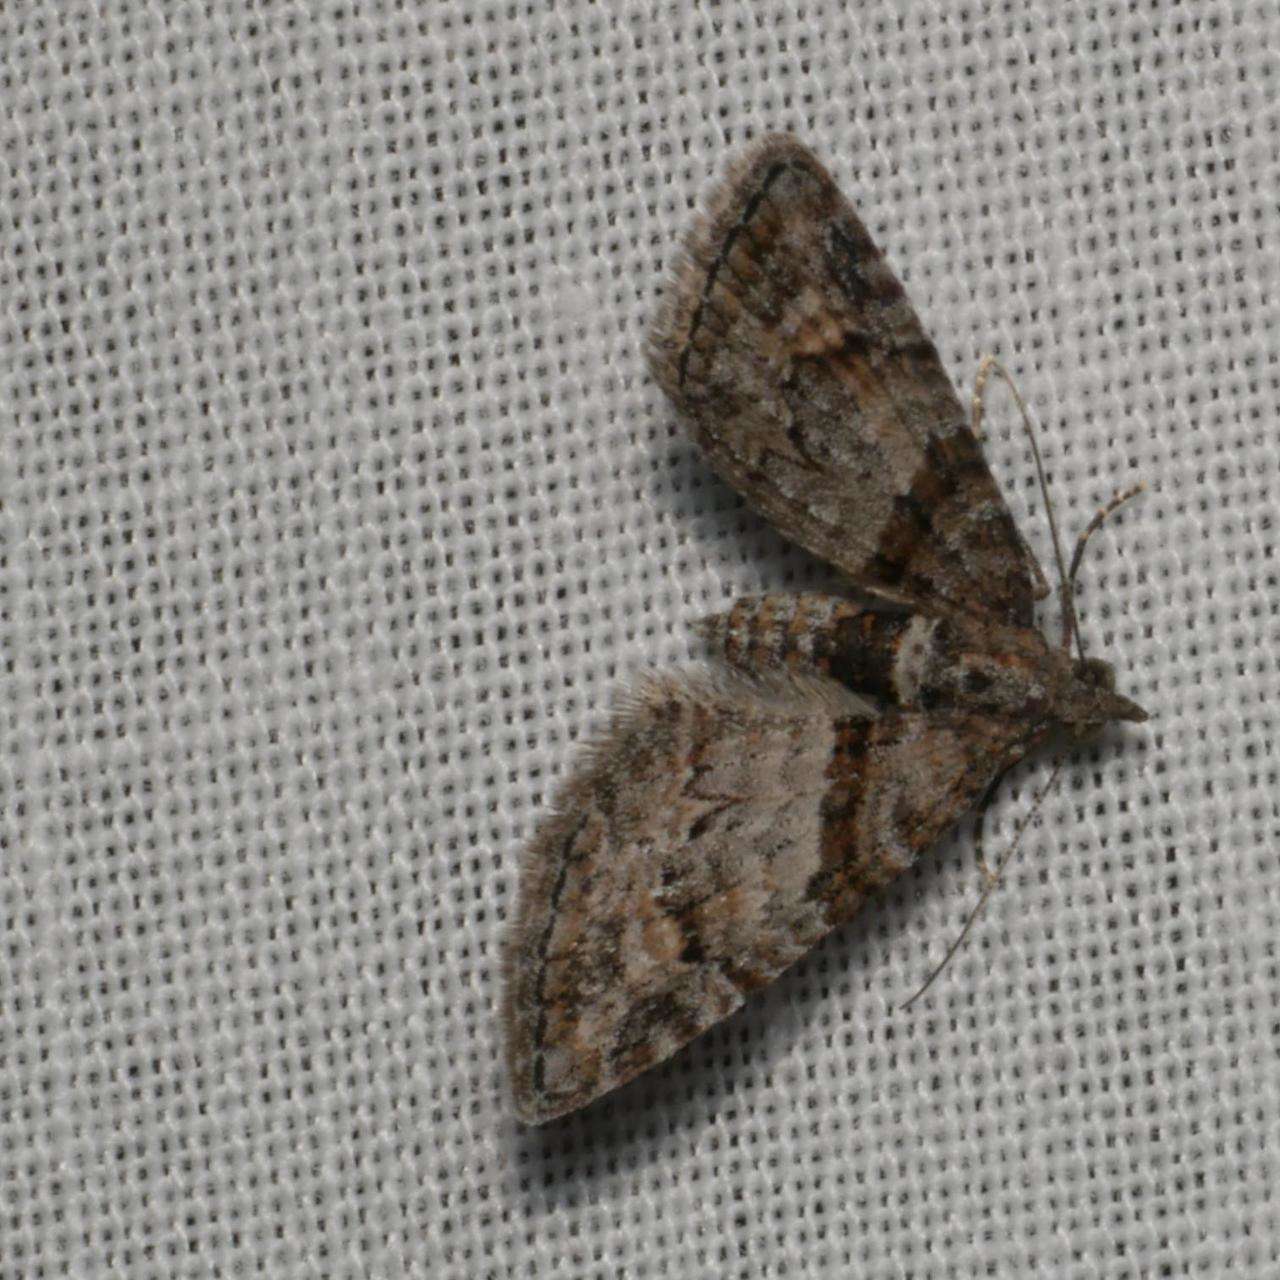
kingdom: Animalia
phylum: Arthropoda
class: Insecta
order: Lepidoptera
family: Geometridae
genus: Phrissogonus
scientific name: Phrissogonus laticostata
